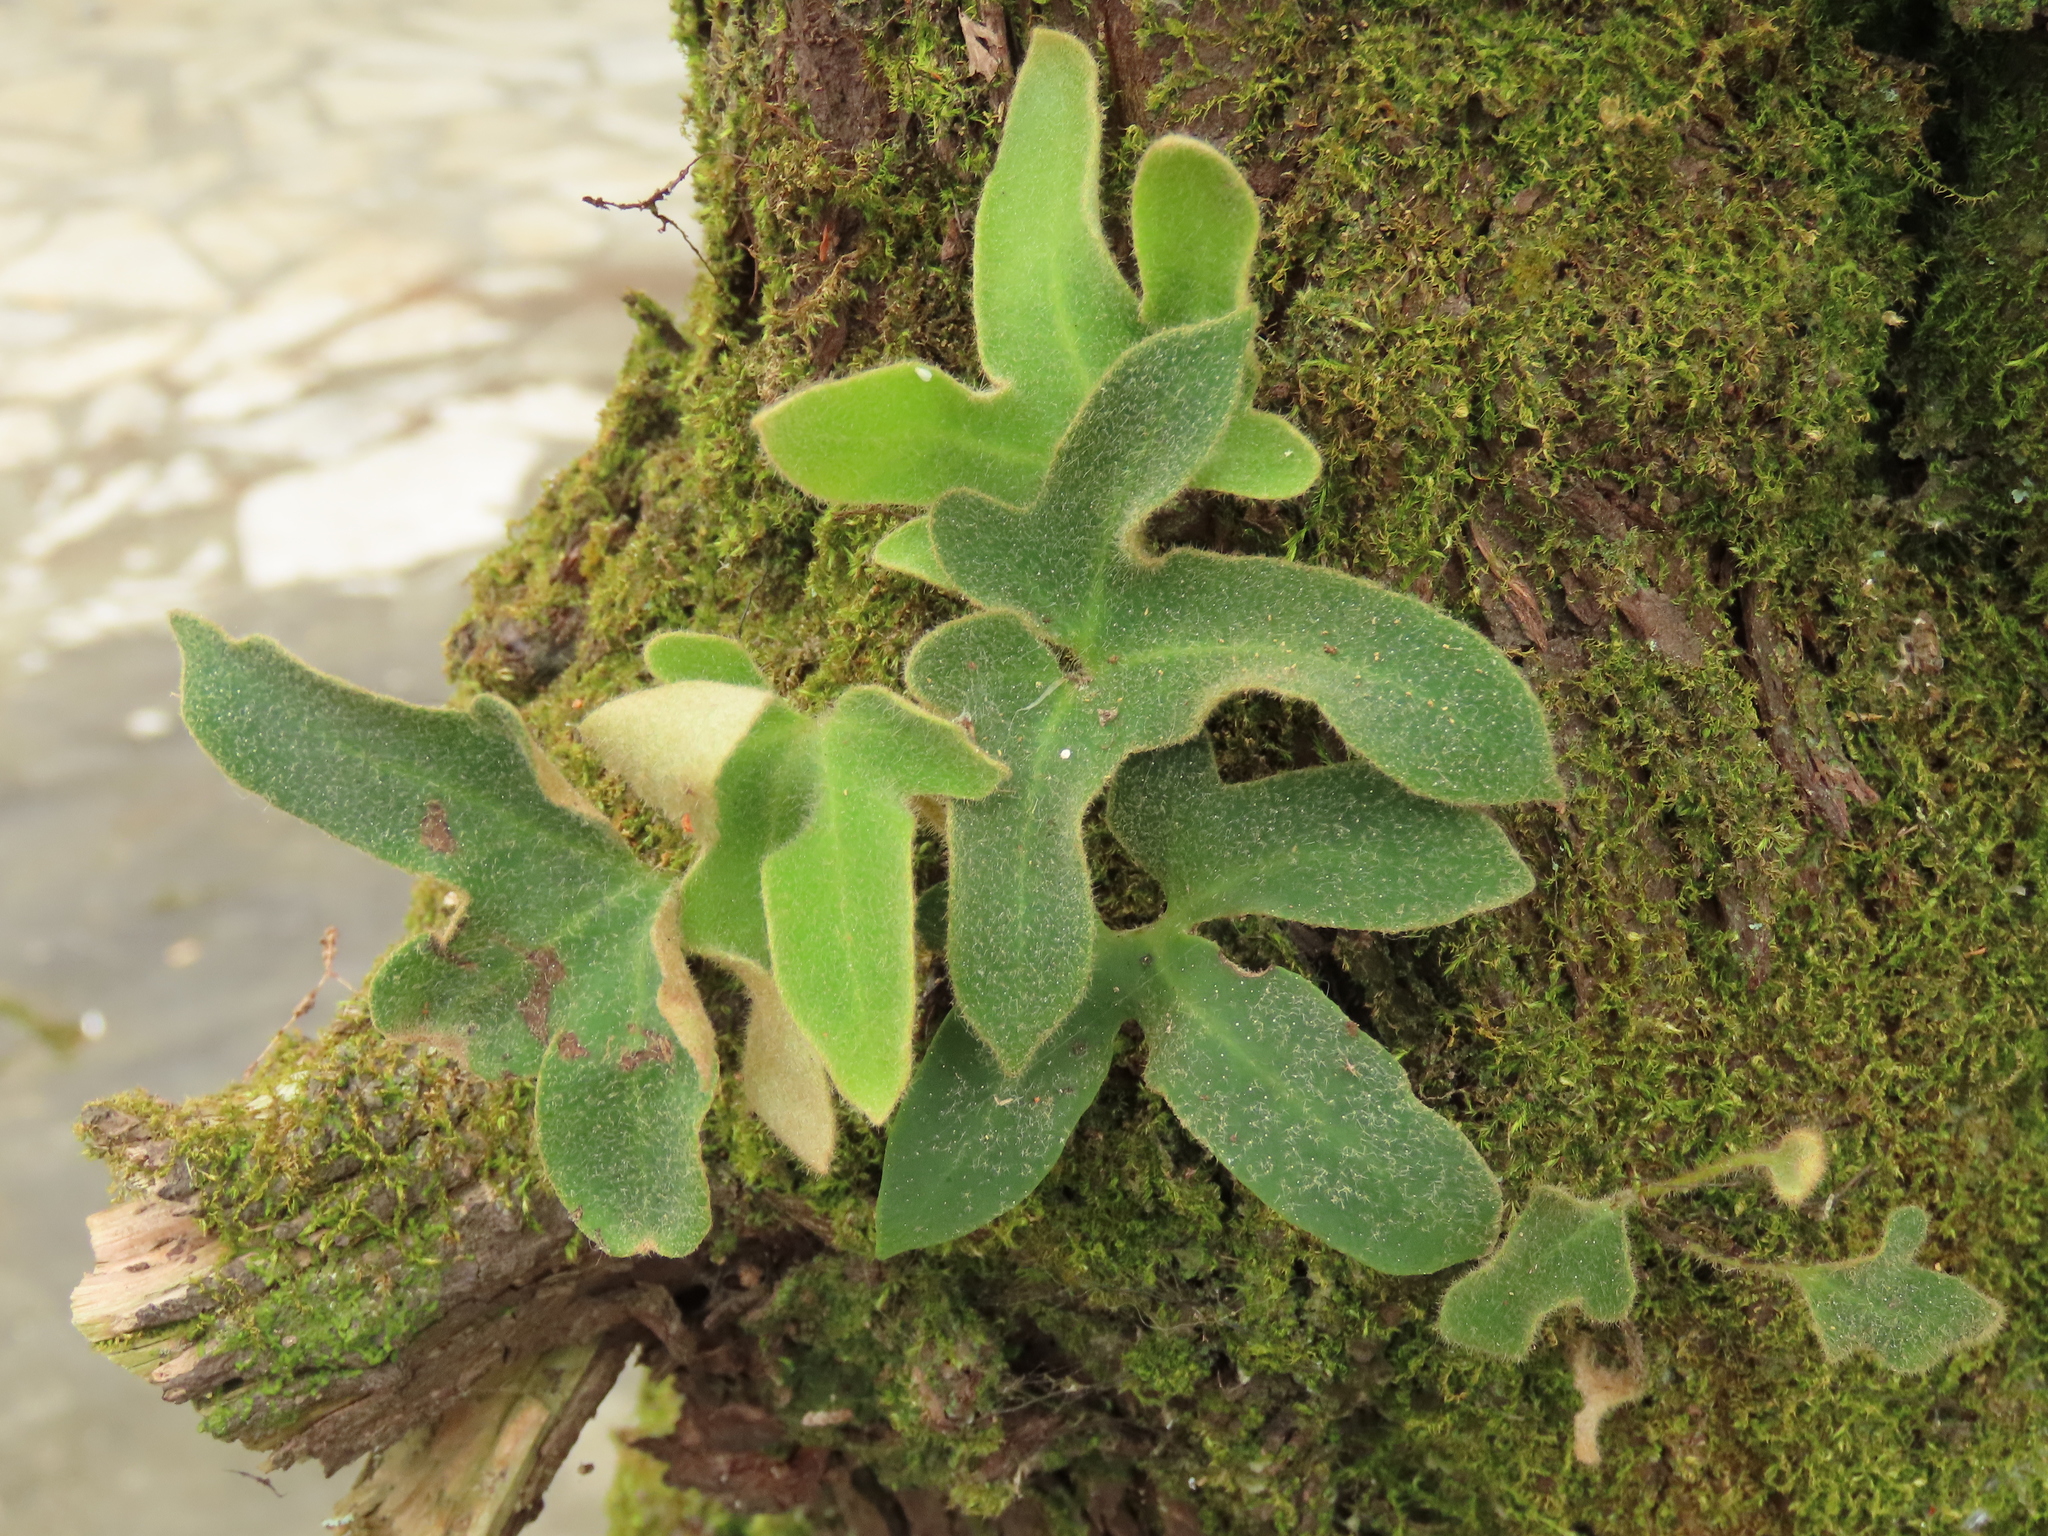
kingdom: Plantae
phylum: Tracheophyta
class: Polypodiopsida
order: Polypodiales
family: Polypodiaceae
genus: Pyrrosia
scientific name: Pyrrosia polydactyla
